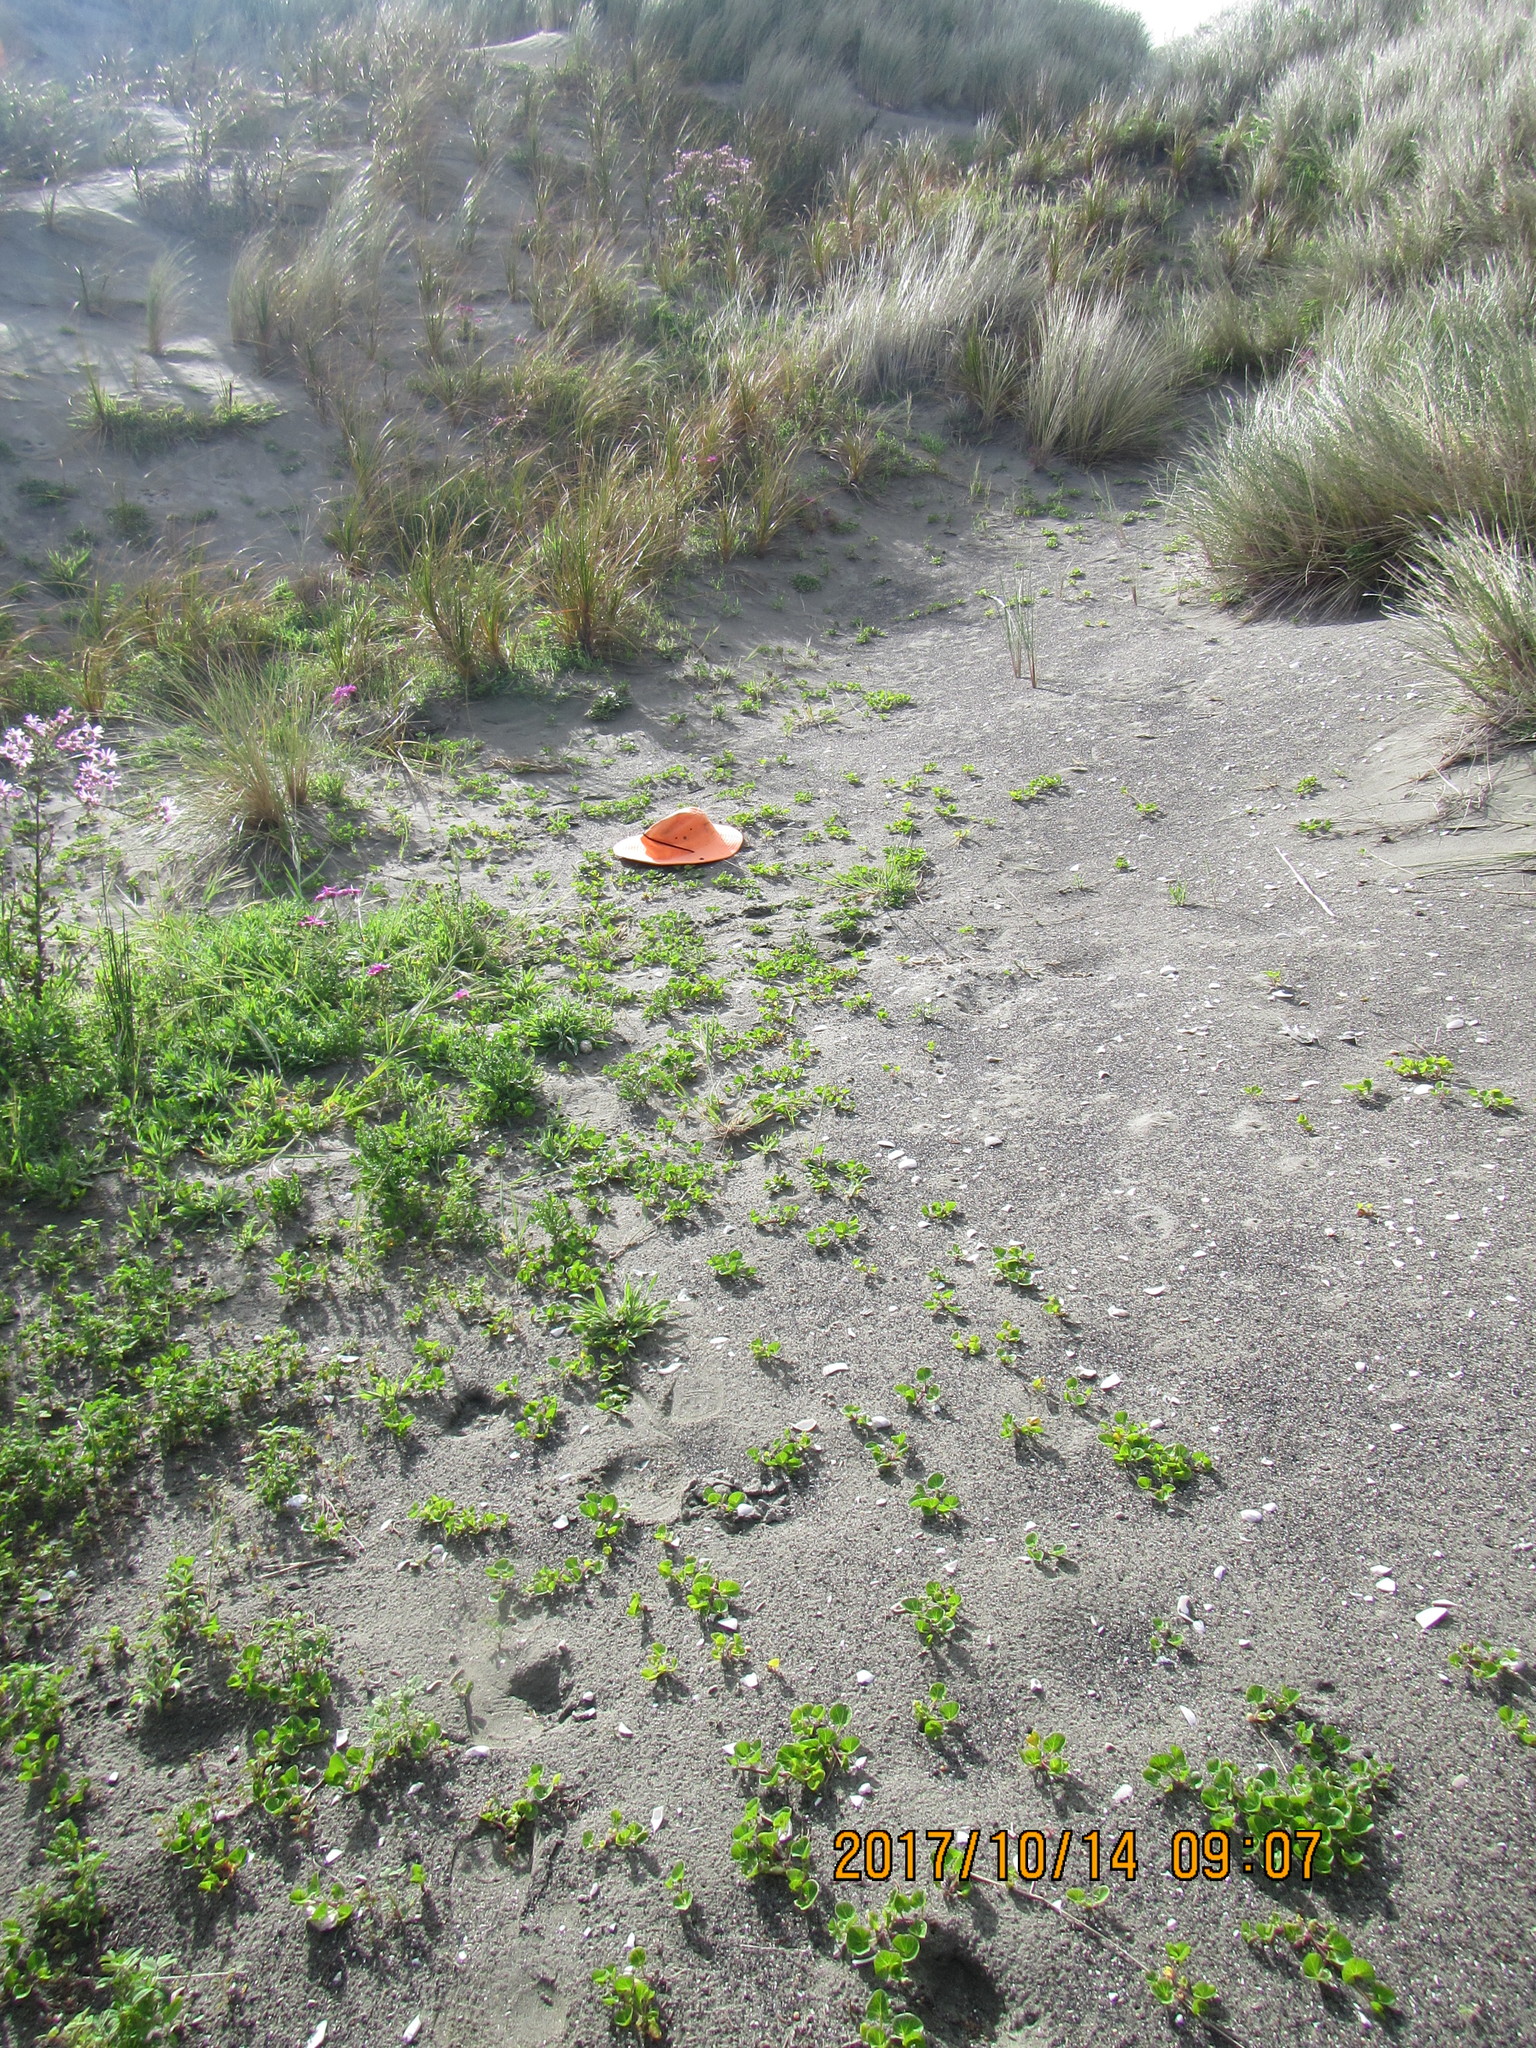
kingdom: Plantae
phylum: Tracheophyta
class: Magnoliopsida
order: Solanales
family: Convolvulaceae
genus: Calystegia
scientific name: Calystegia soldanella
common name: Sea bindweed
